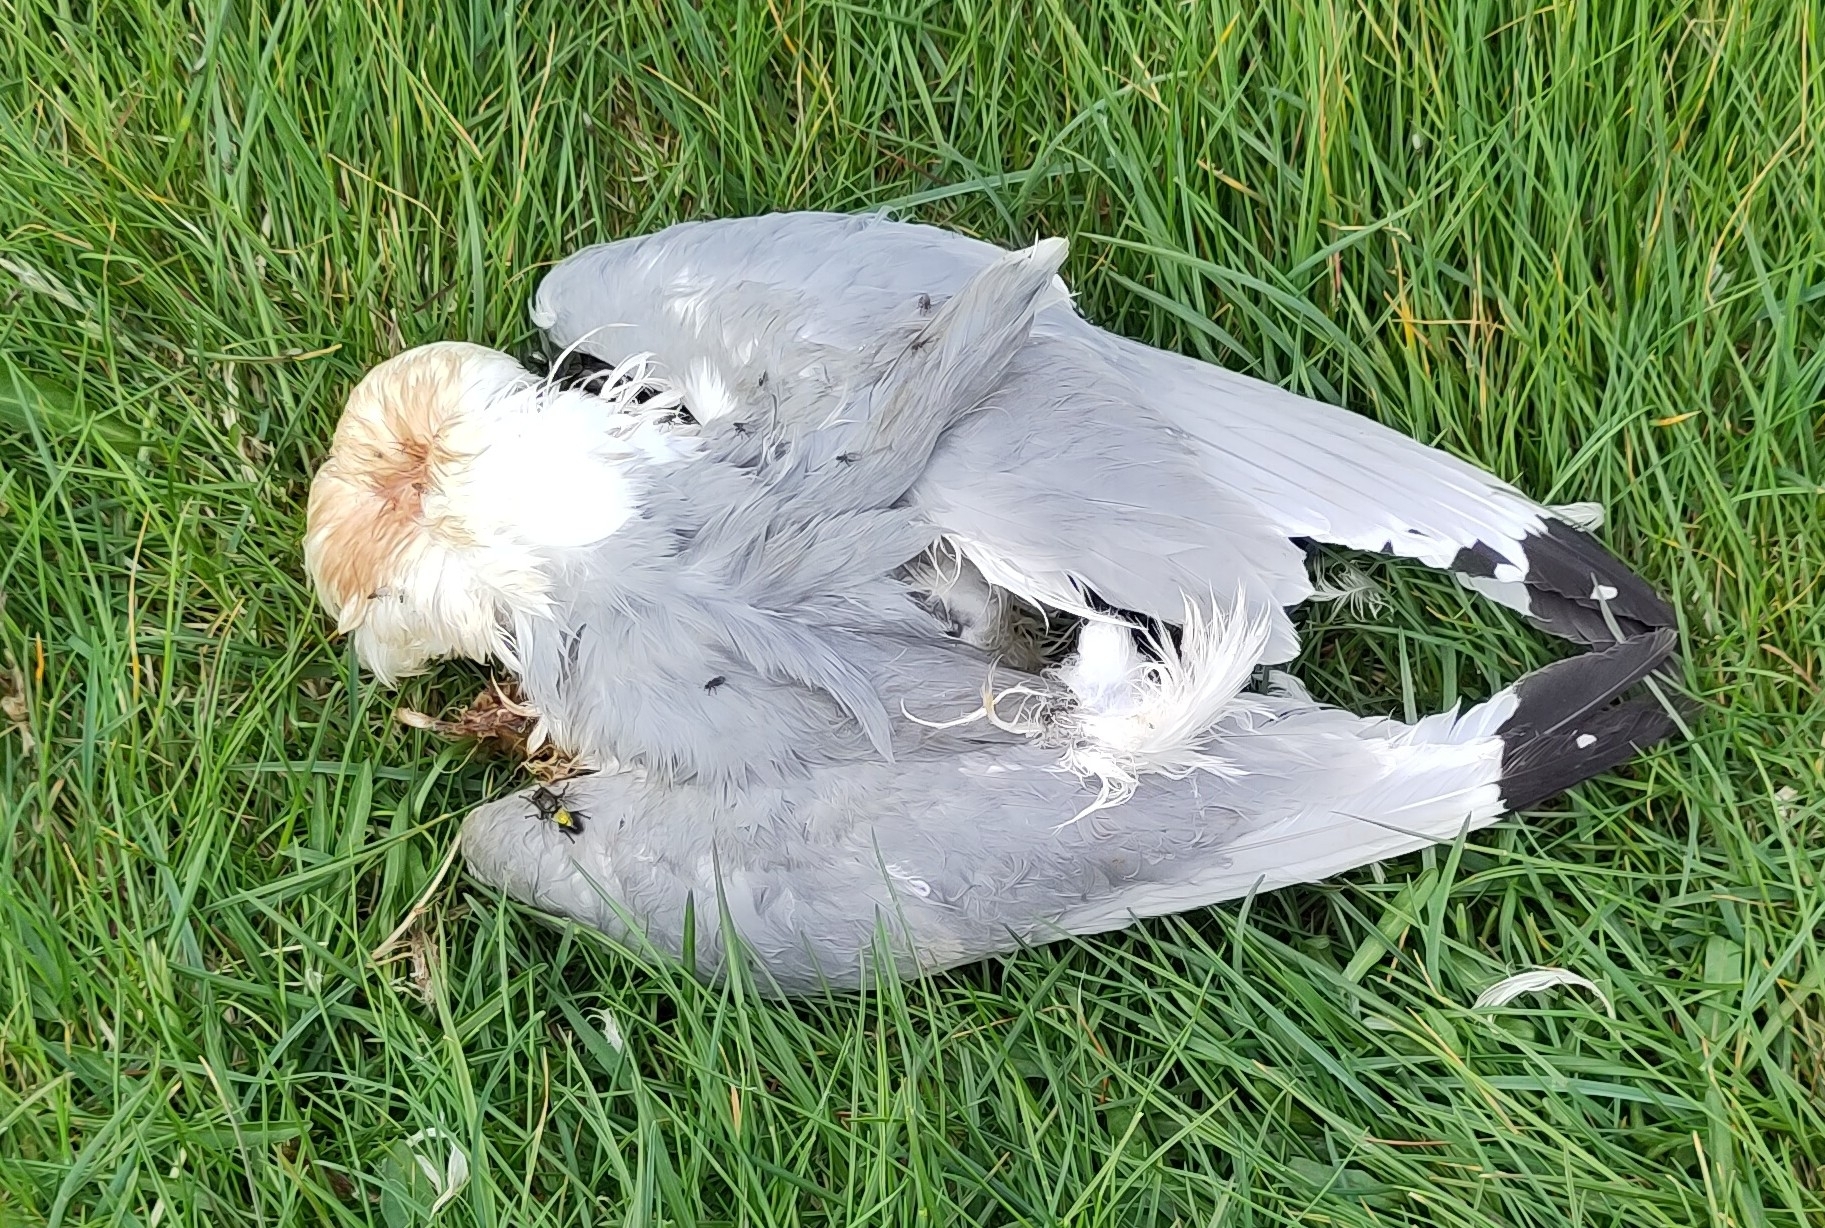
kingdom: Animalia
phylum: Chordata
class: Aves
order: Charadriiformes
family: Laridae
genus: Rissa
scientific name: Rissa tridactyla
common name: Black-legged kittiwake
